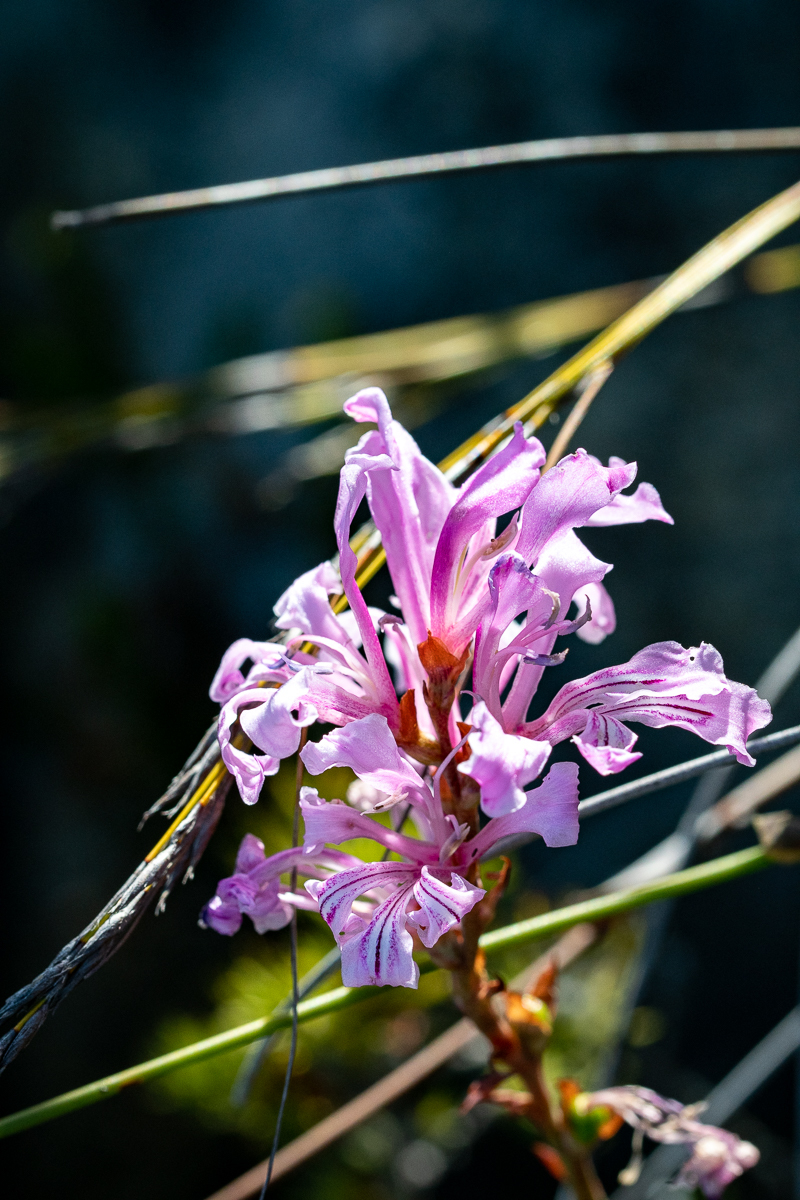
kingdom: Plantae
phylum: Tracheophyta
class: Liliopsida
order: Asparagales
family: Iridaceae
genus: Tritoniopsis
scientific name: Tritoniopsis lata
